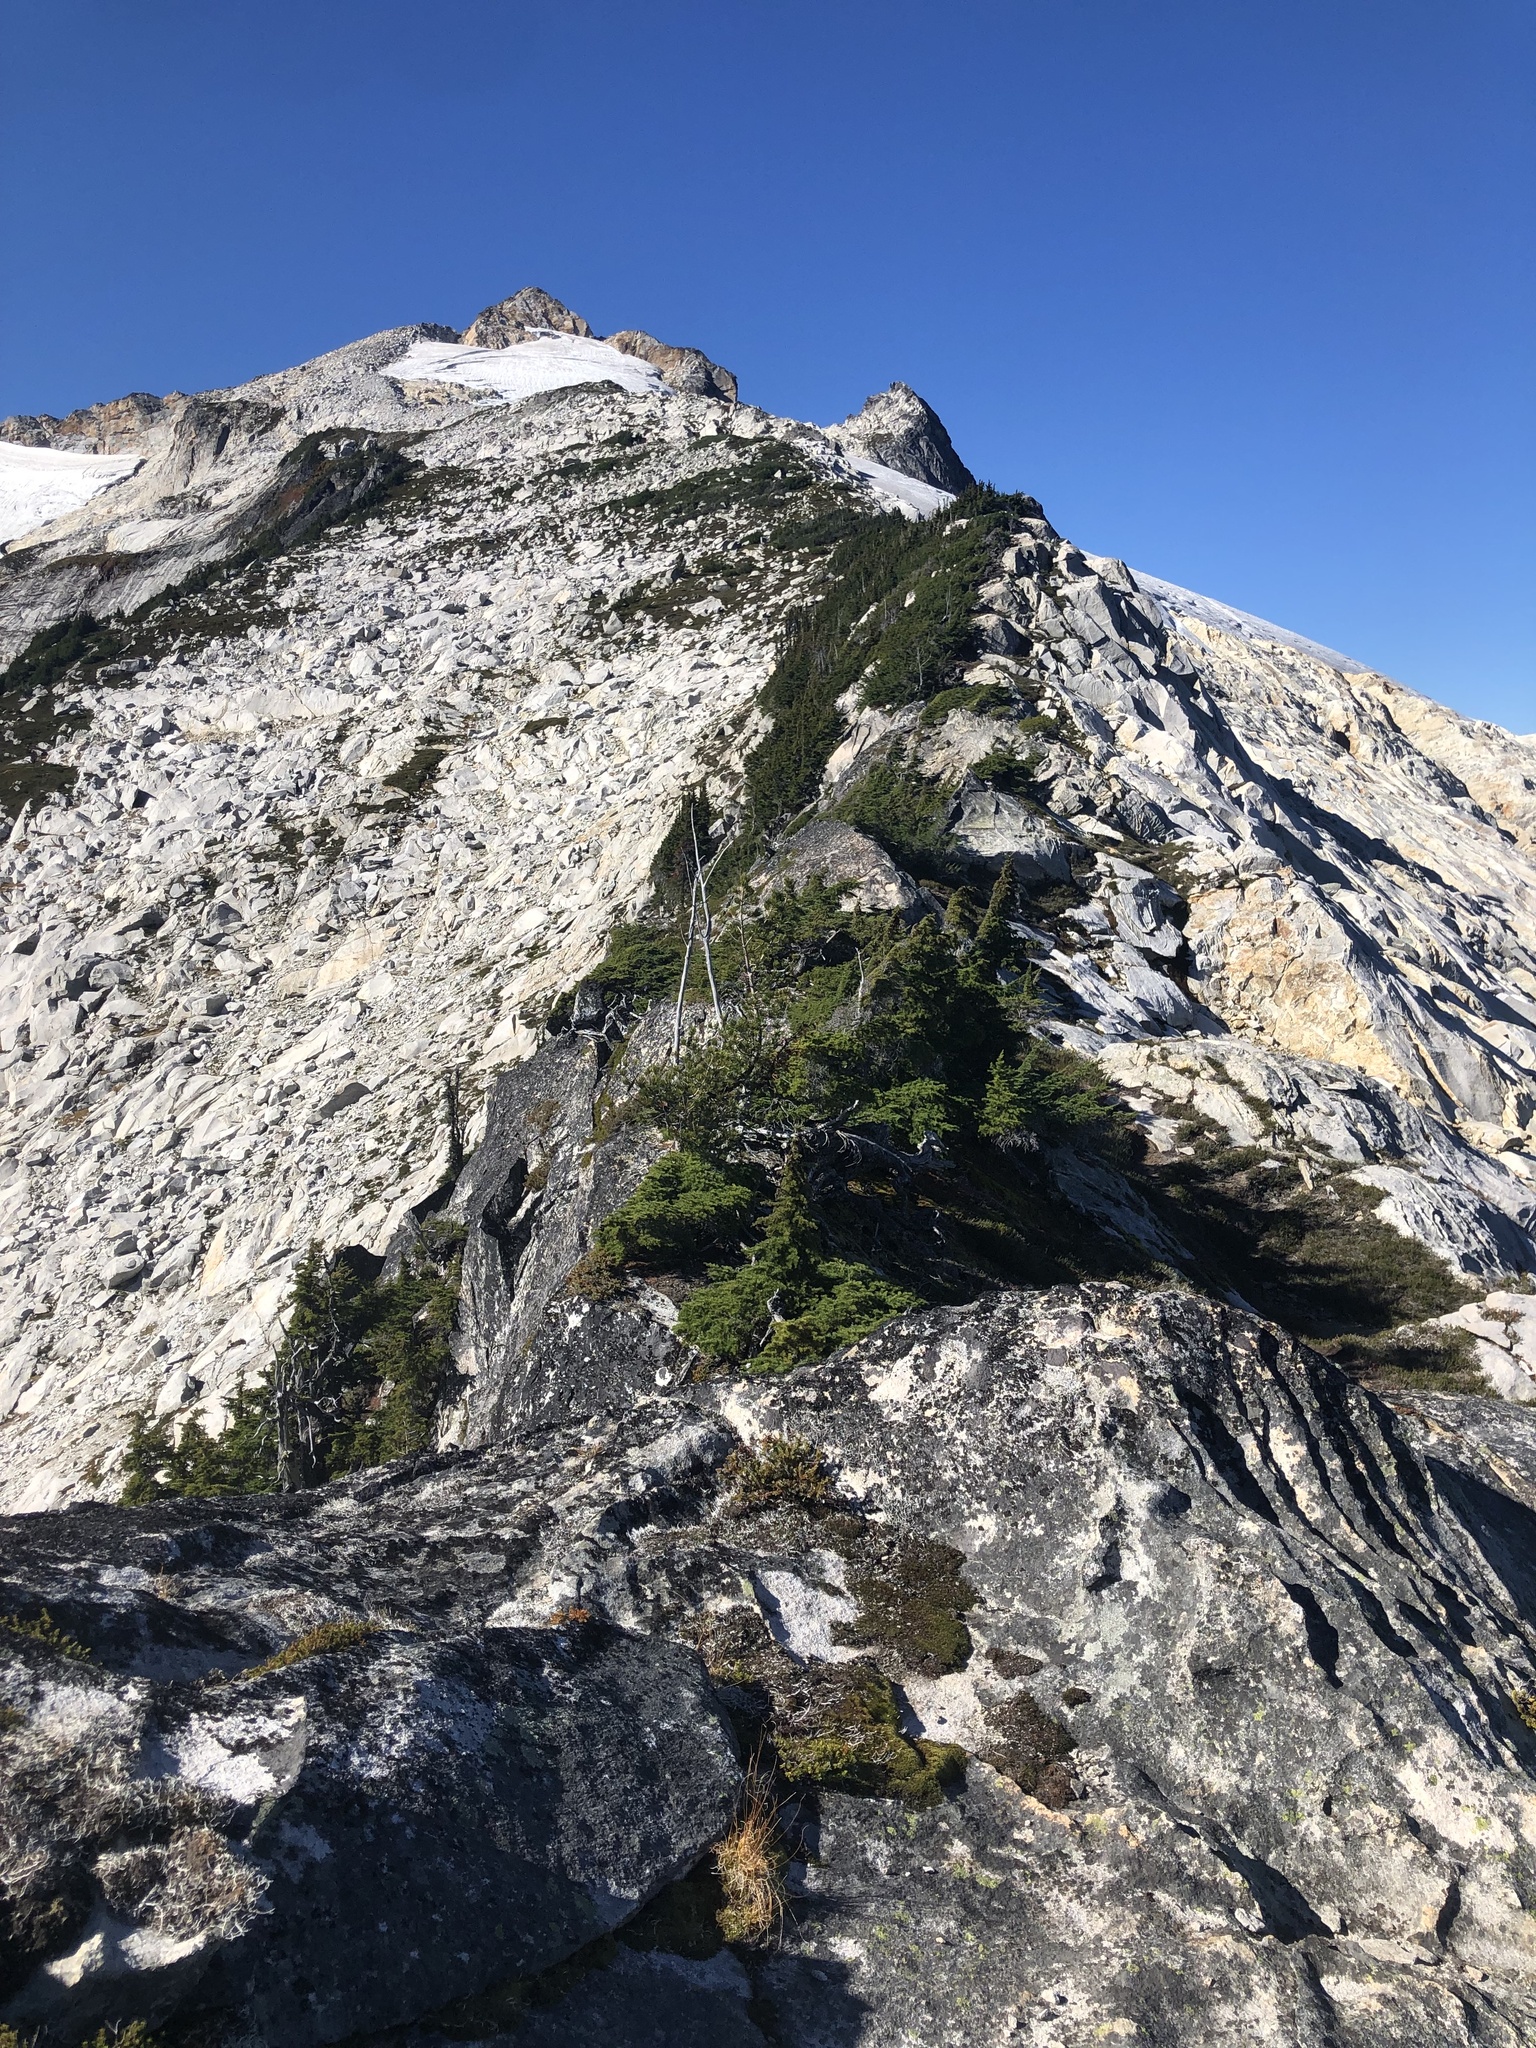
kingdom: Plantae
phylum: Tracheophyta
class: Pinopsida
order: Pinales
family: Pinaceae
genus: Tsuga
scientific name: Tsuga mertensiana
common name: Mountain hemlock
